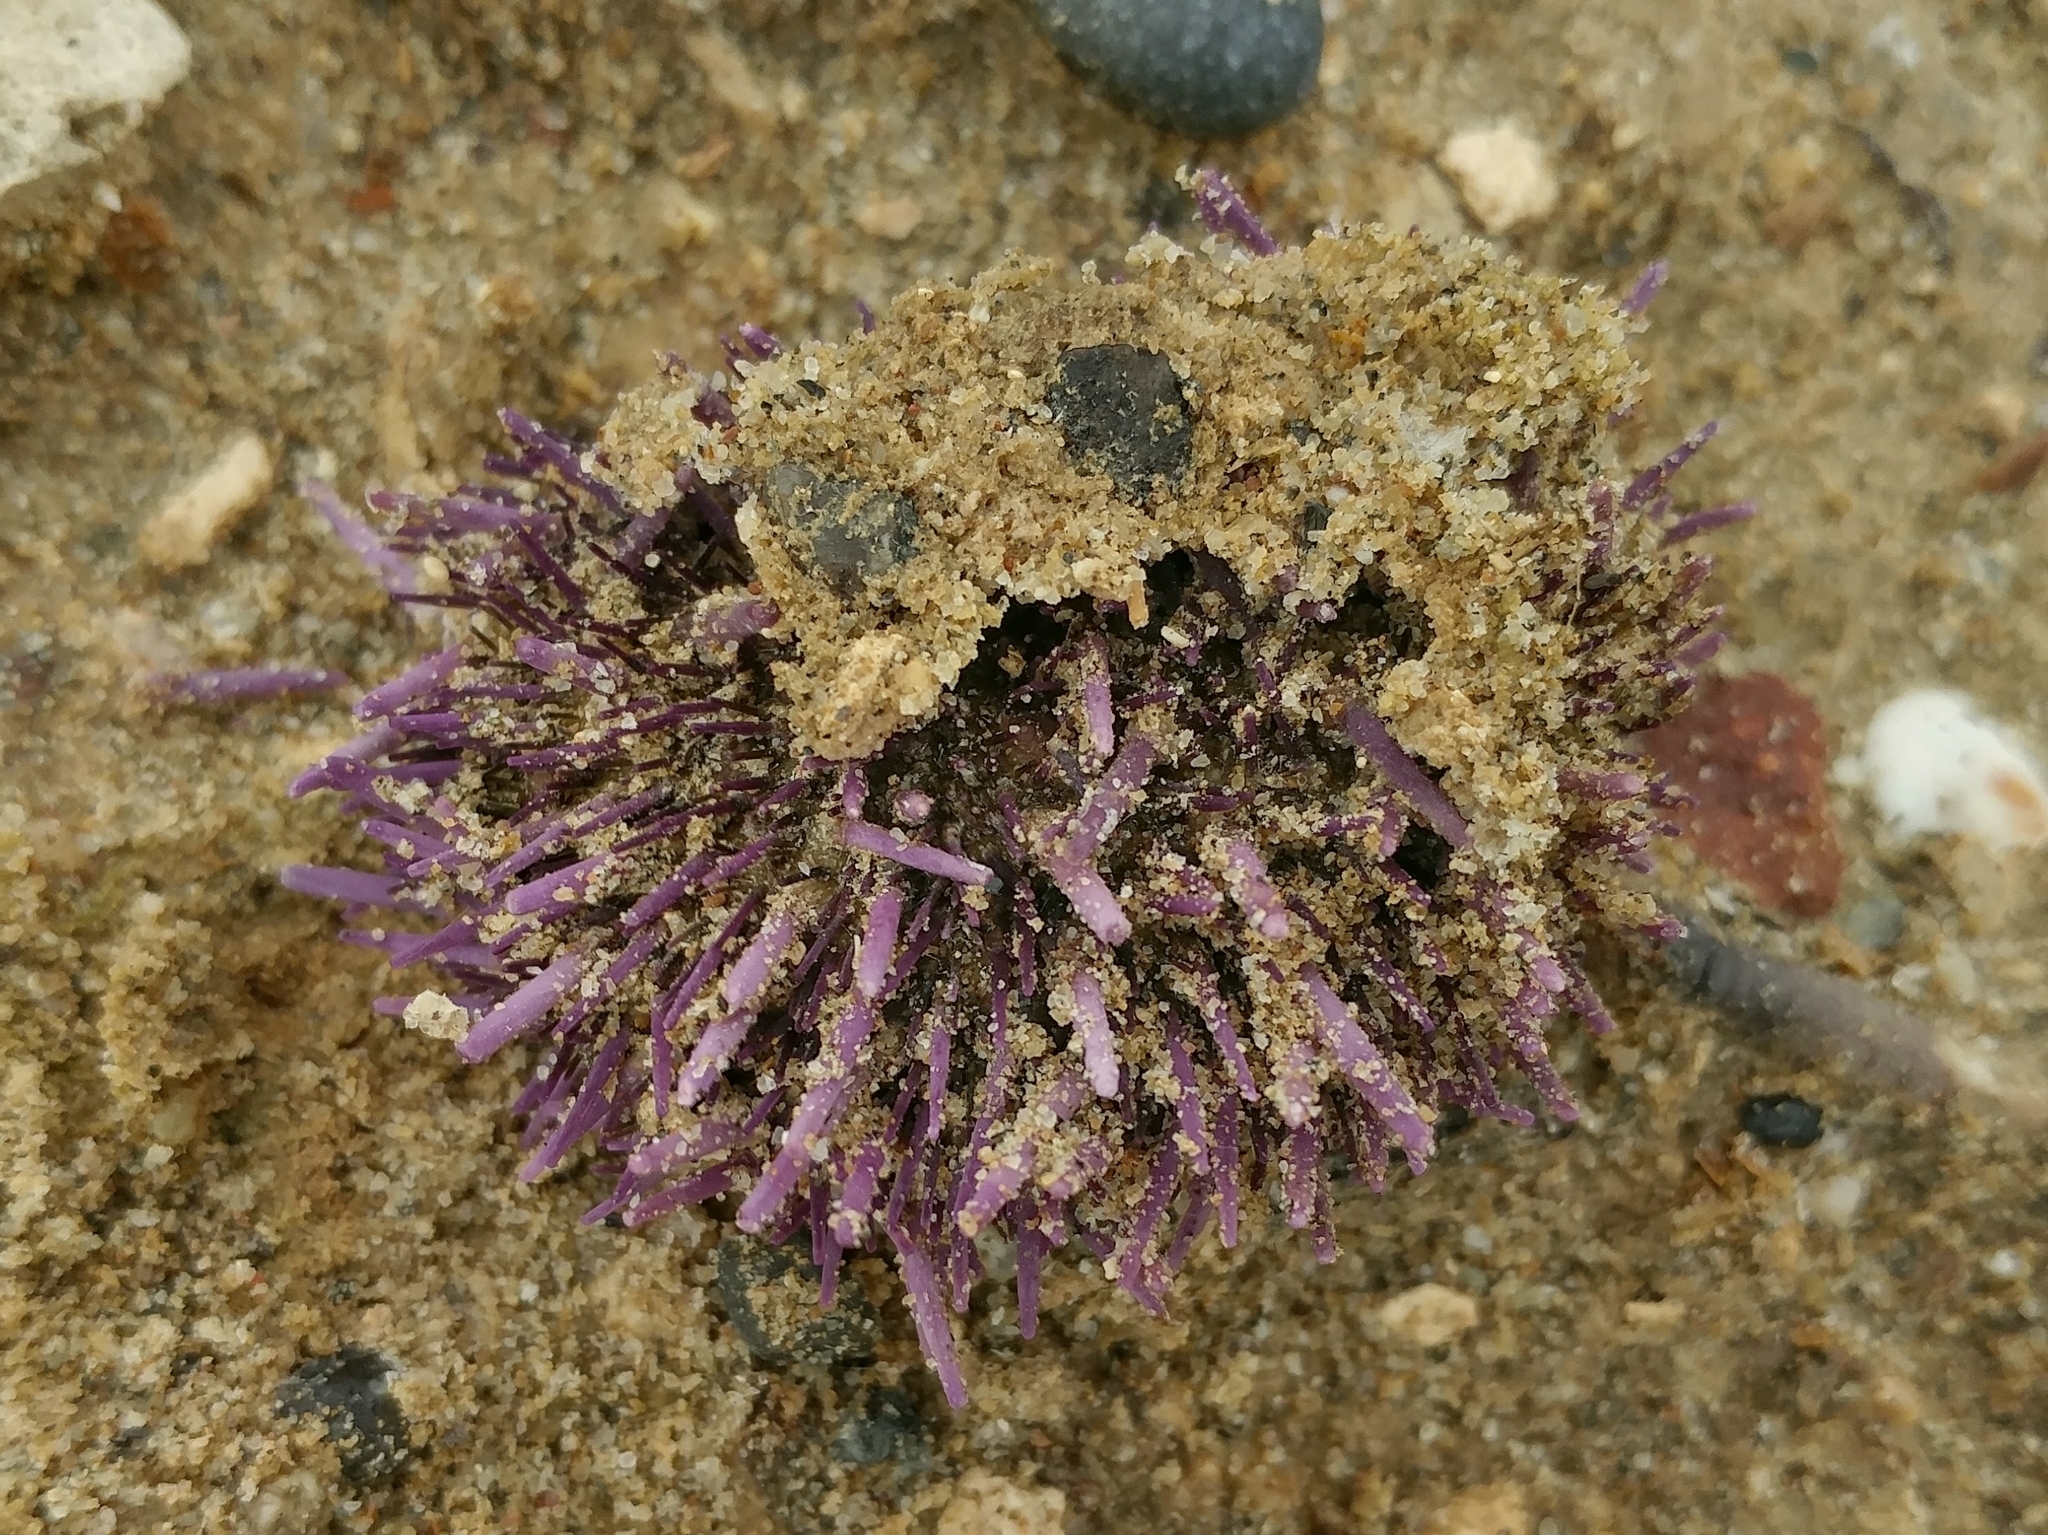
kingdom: Animalia
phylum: Echinodermata
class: Echinoidea
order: Camarodonta
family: Strongylocentrotidae
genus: Strongylocentrotus
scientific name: Strongylocentrotus purpuratus
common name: Purple sea urchin
